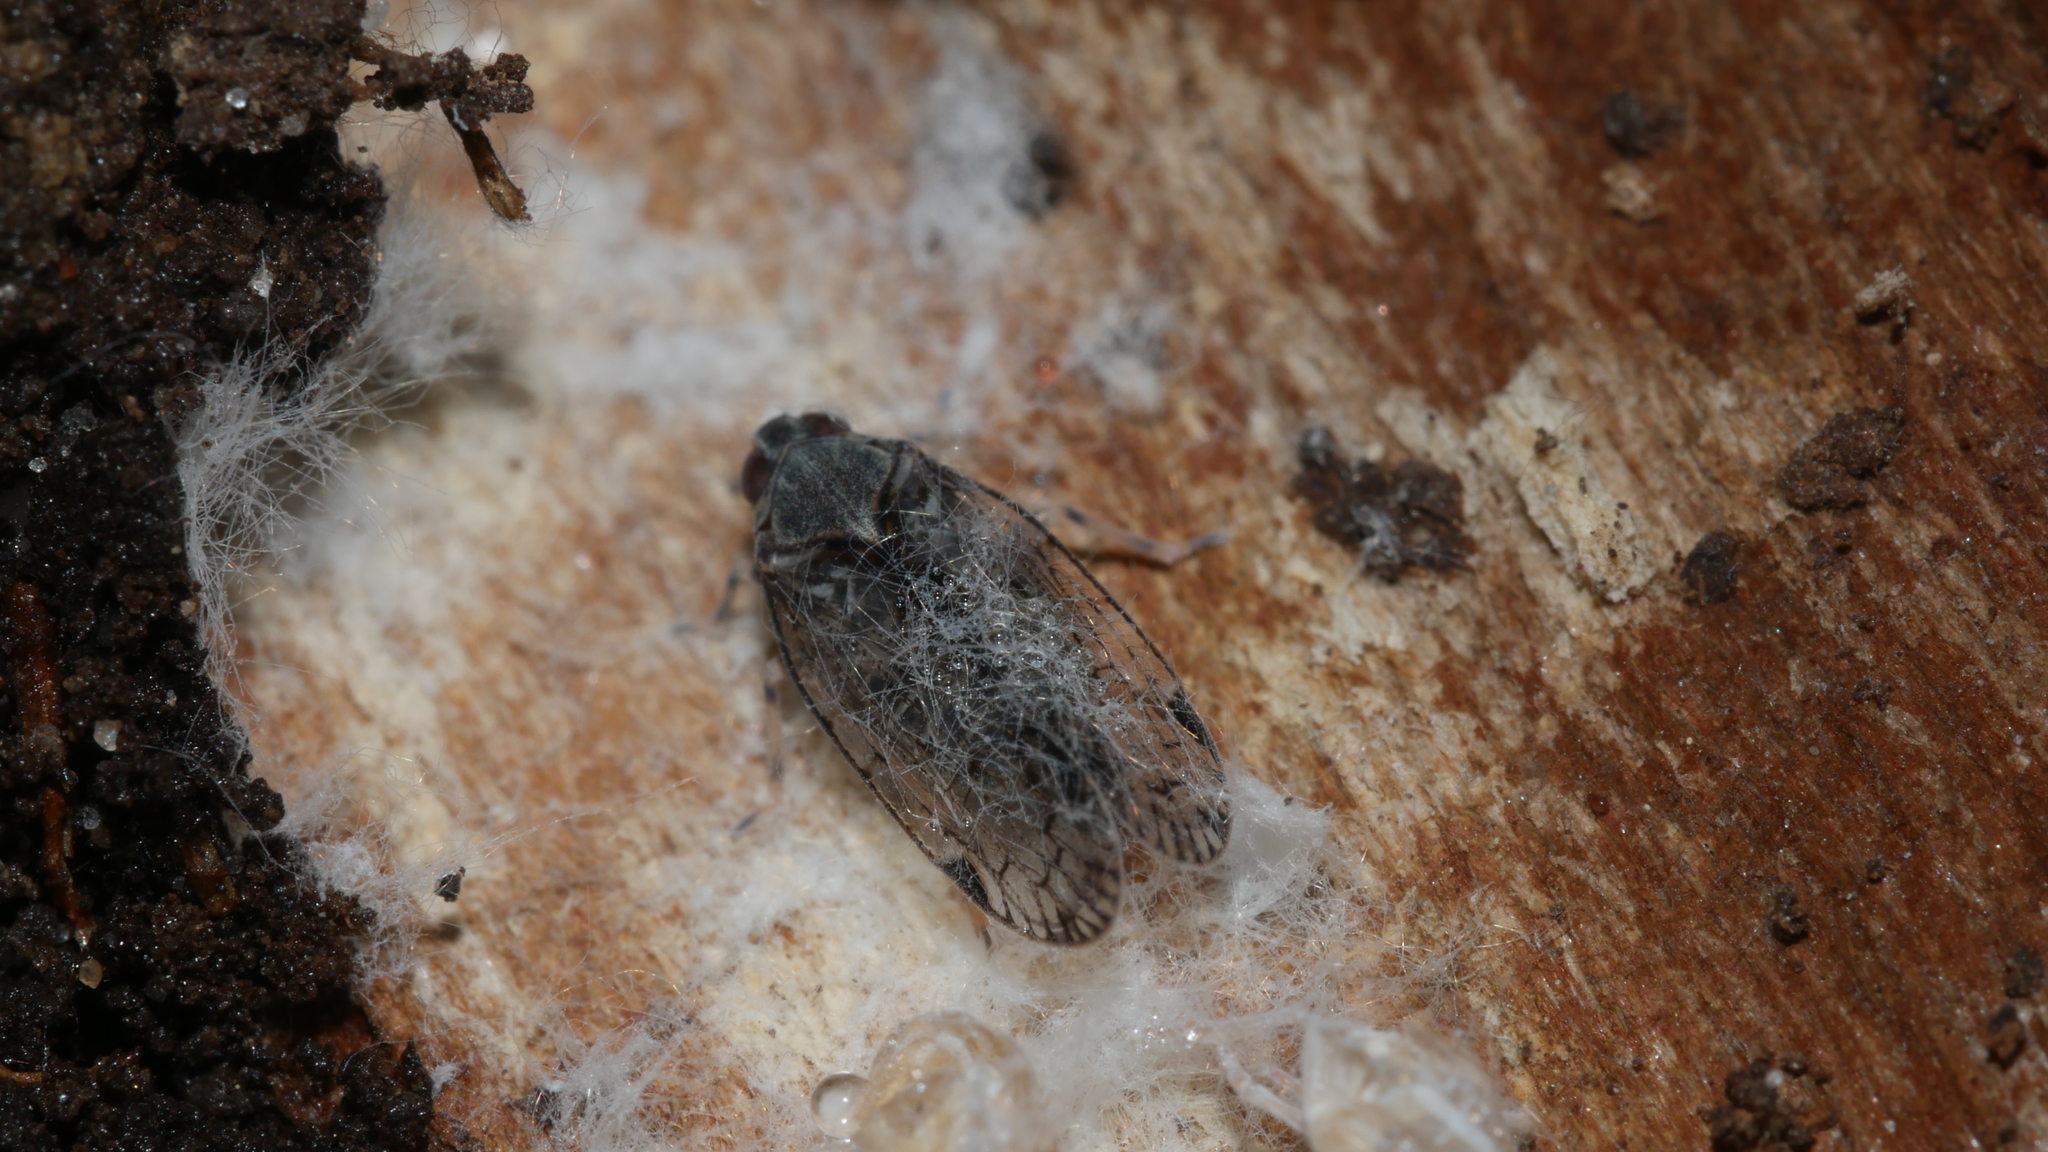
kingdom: Animalia
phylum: Arthropoda
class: Insecta
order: Hemiptera
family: Cixiidae
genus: Melanoliarus
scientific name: Melanoliarus placitus
